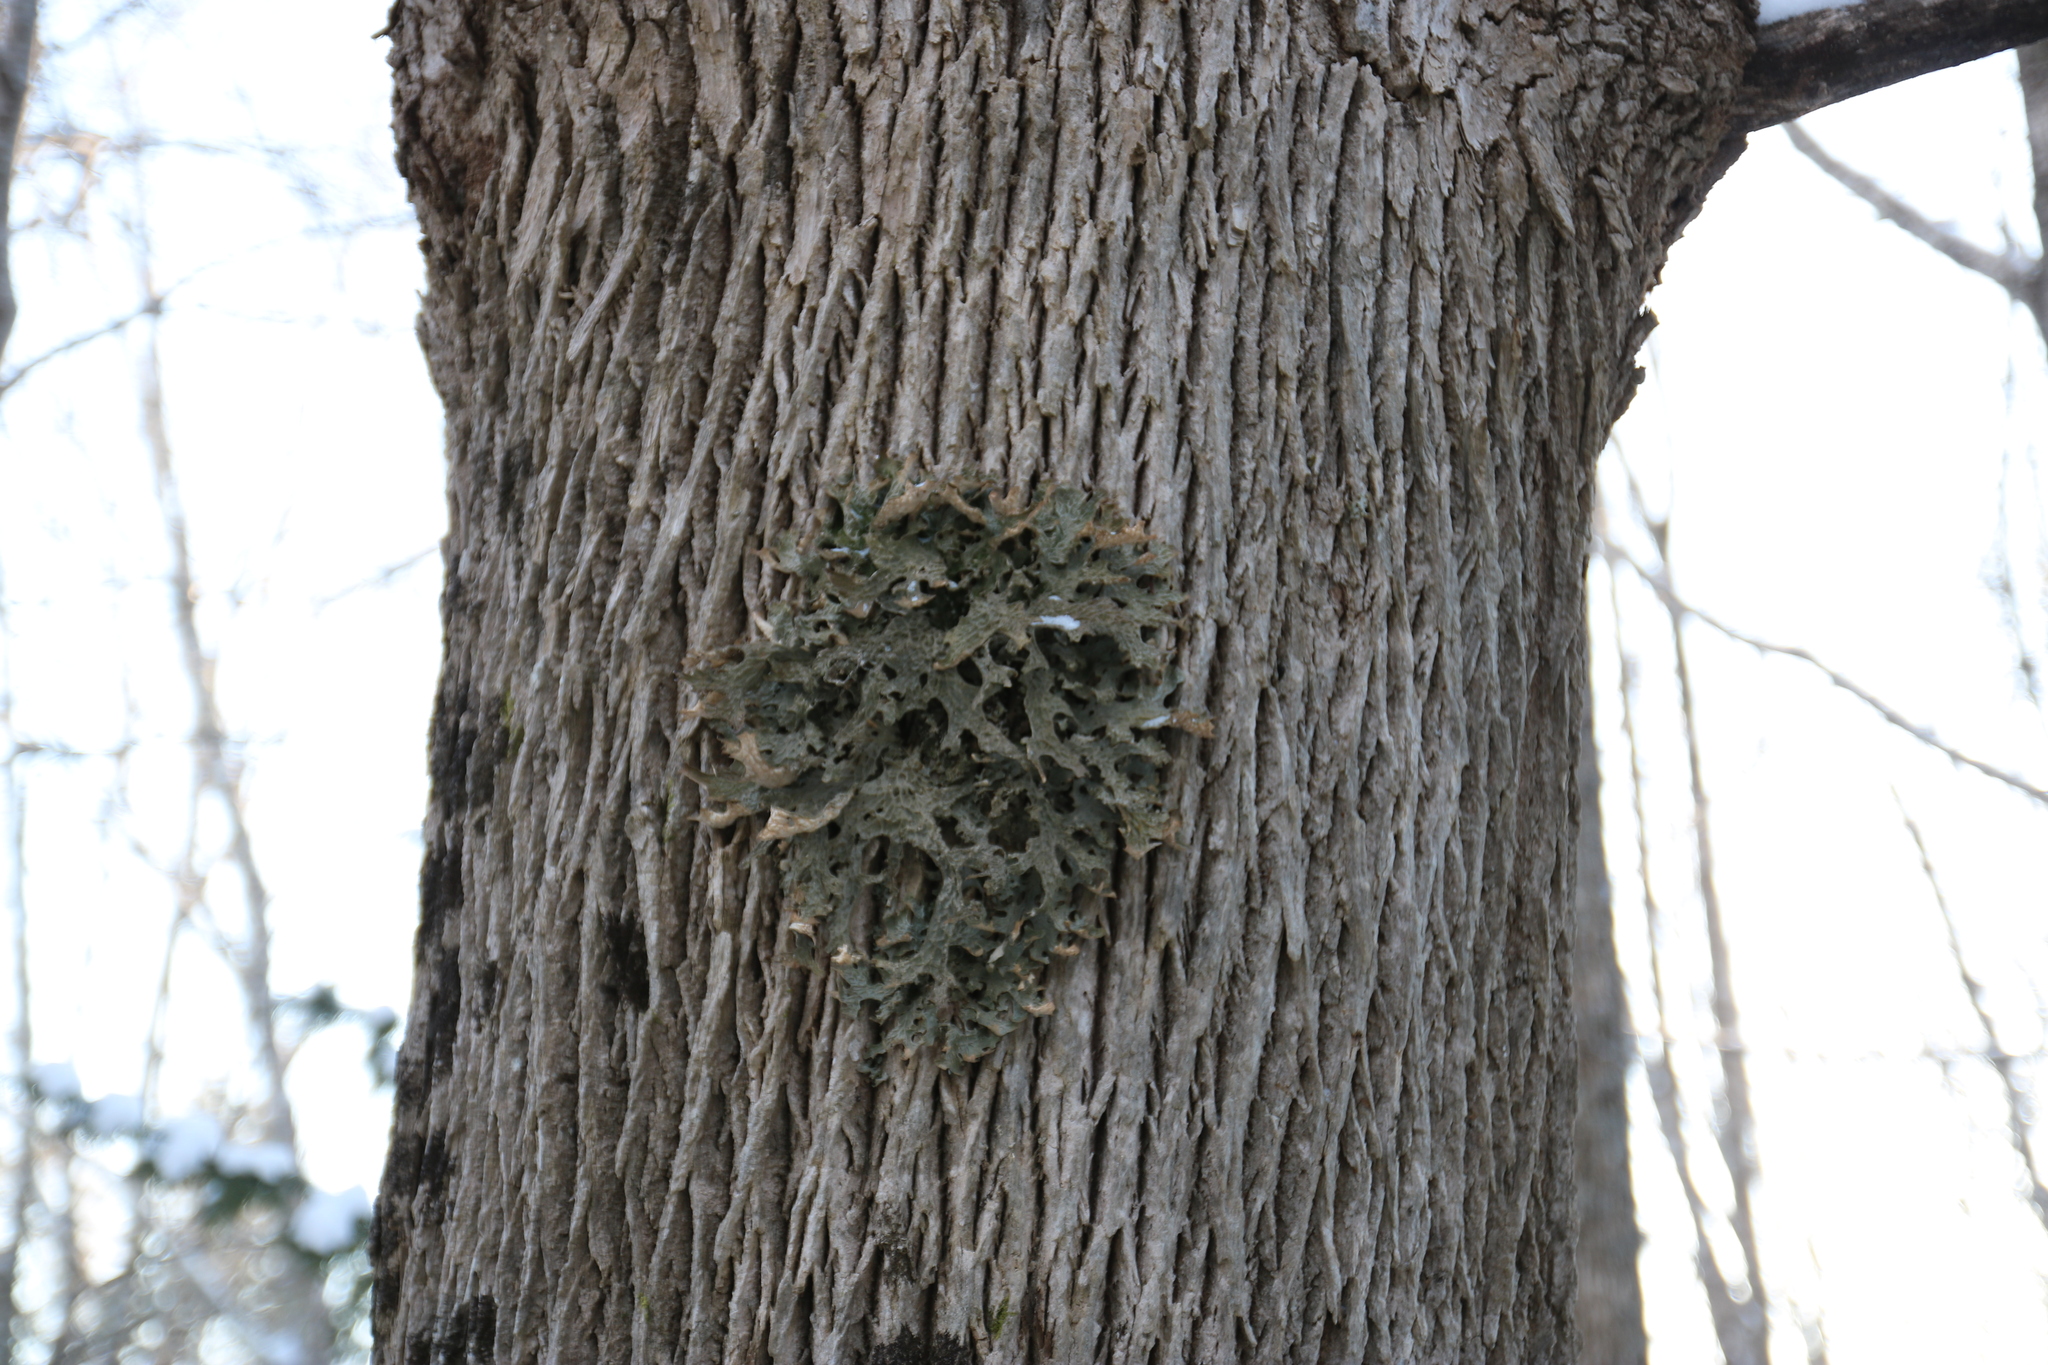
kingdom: Fungi
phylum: Ascomycota
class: Lecanoromycetes
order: Peltigerales
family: Lobariaceae
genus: Lobaria
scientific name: Lobaria pulmonaria
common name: Lungwort
